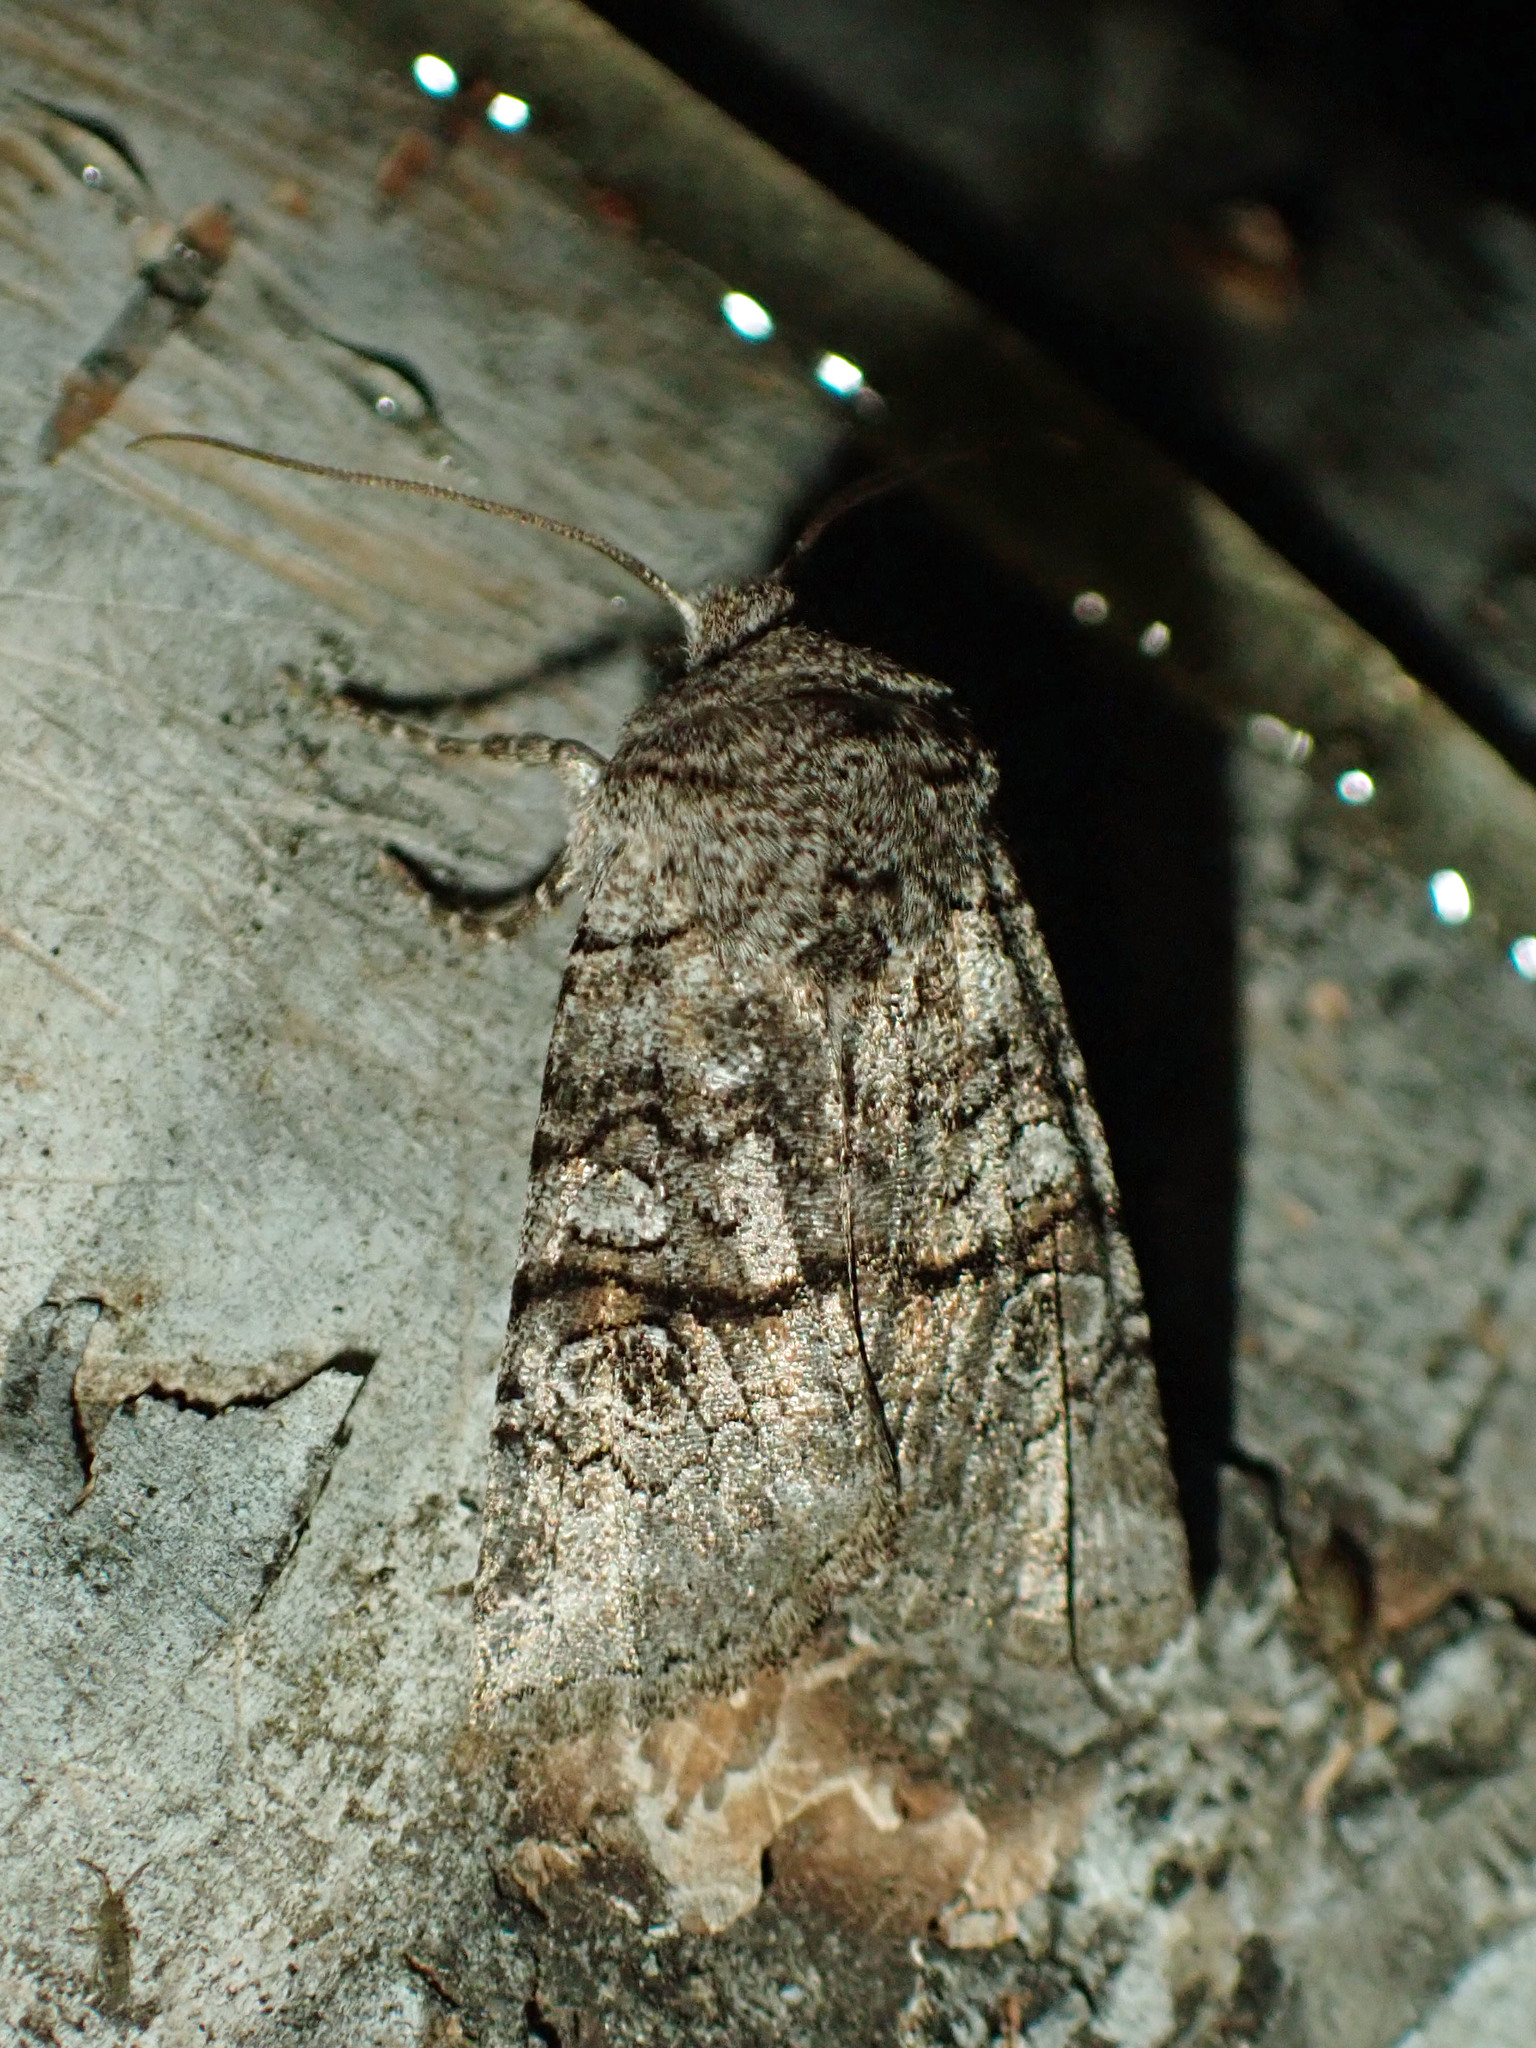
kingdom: Animalia
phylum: Arthropoda
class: Insecta
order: Lepidoptera
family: Noctuidae
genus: Litholomia
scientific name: Litholomia napaea
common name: False pinion moth
